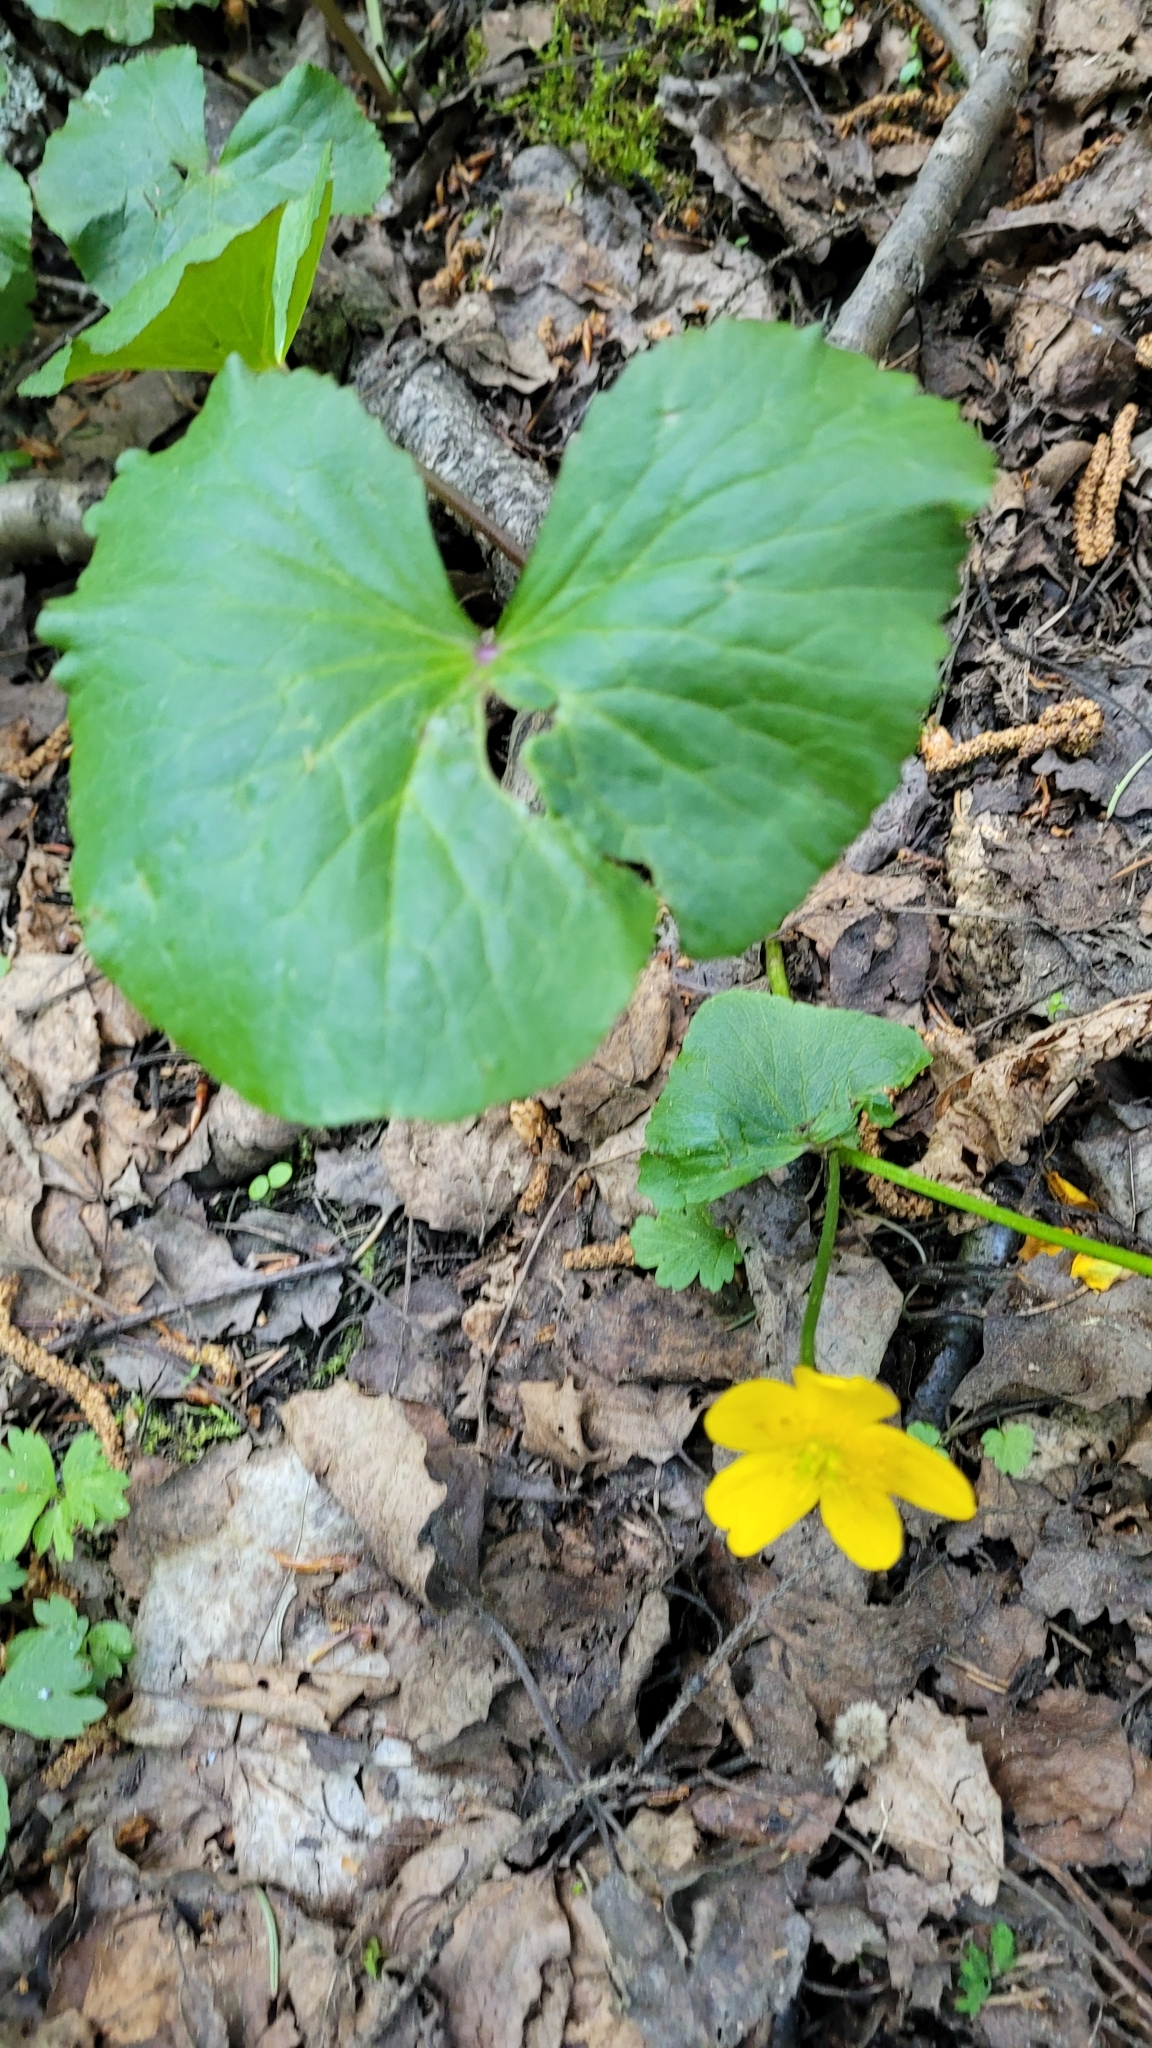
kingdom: Plantae
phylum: Tracheophyta
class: Magnoliopsida
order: Ranunculales
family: Ranunculaceae
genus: Caltha
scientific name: Caltha palustris
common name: Marsh marigold
